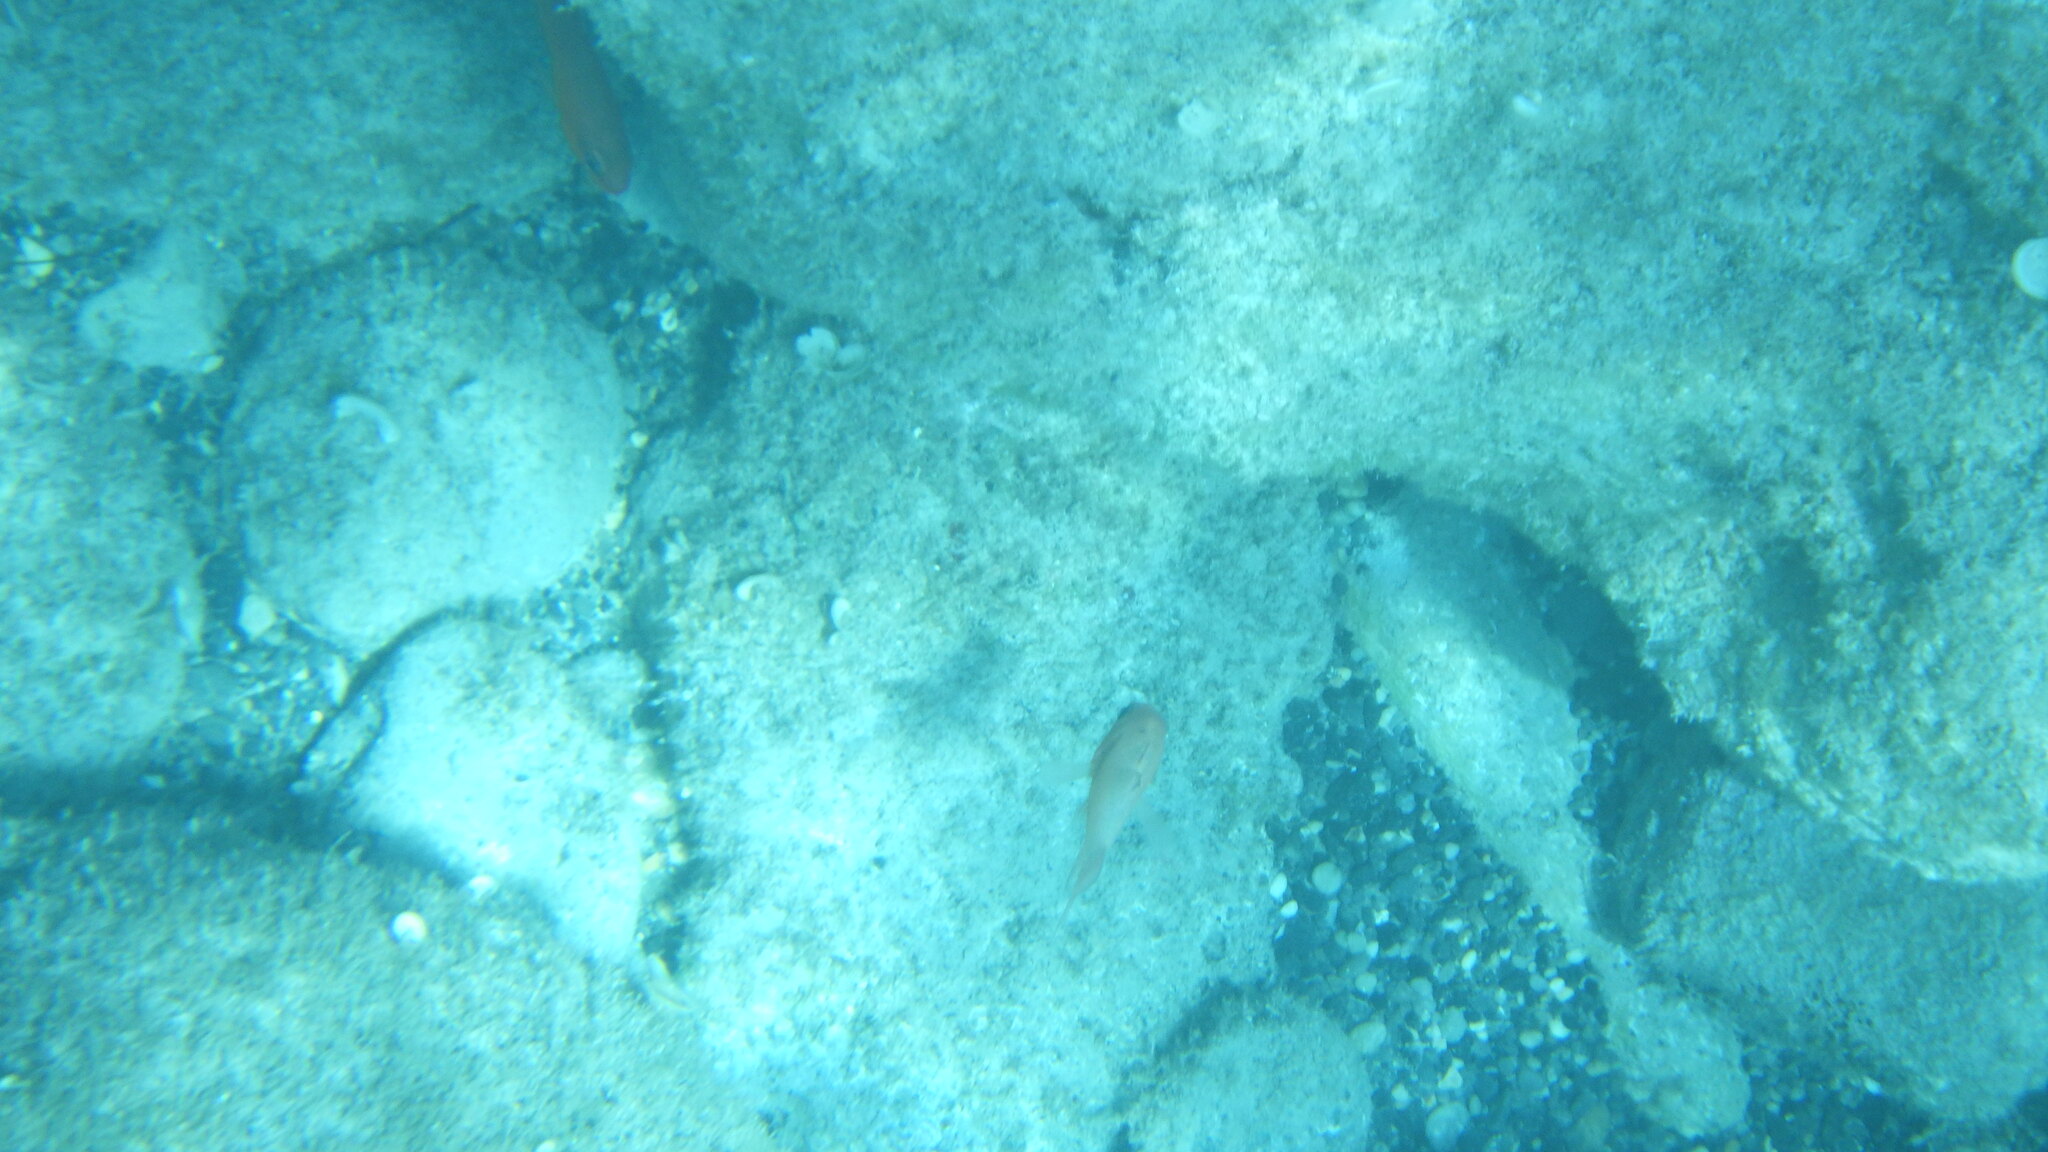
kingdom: Animalia
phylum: Chordata
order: Perciformes
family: Apogonidae
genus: Apogon
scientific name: Apogon imberbis
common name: Cardinal fish
